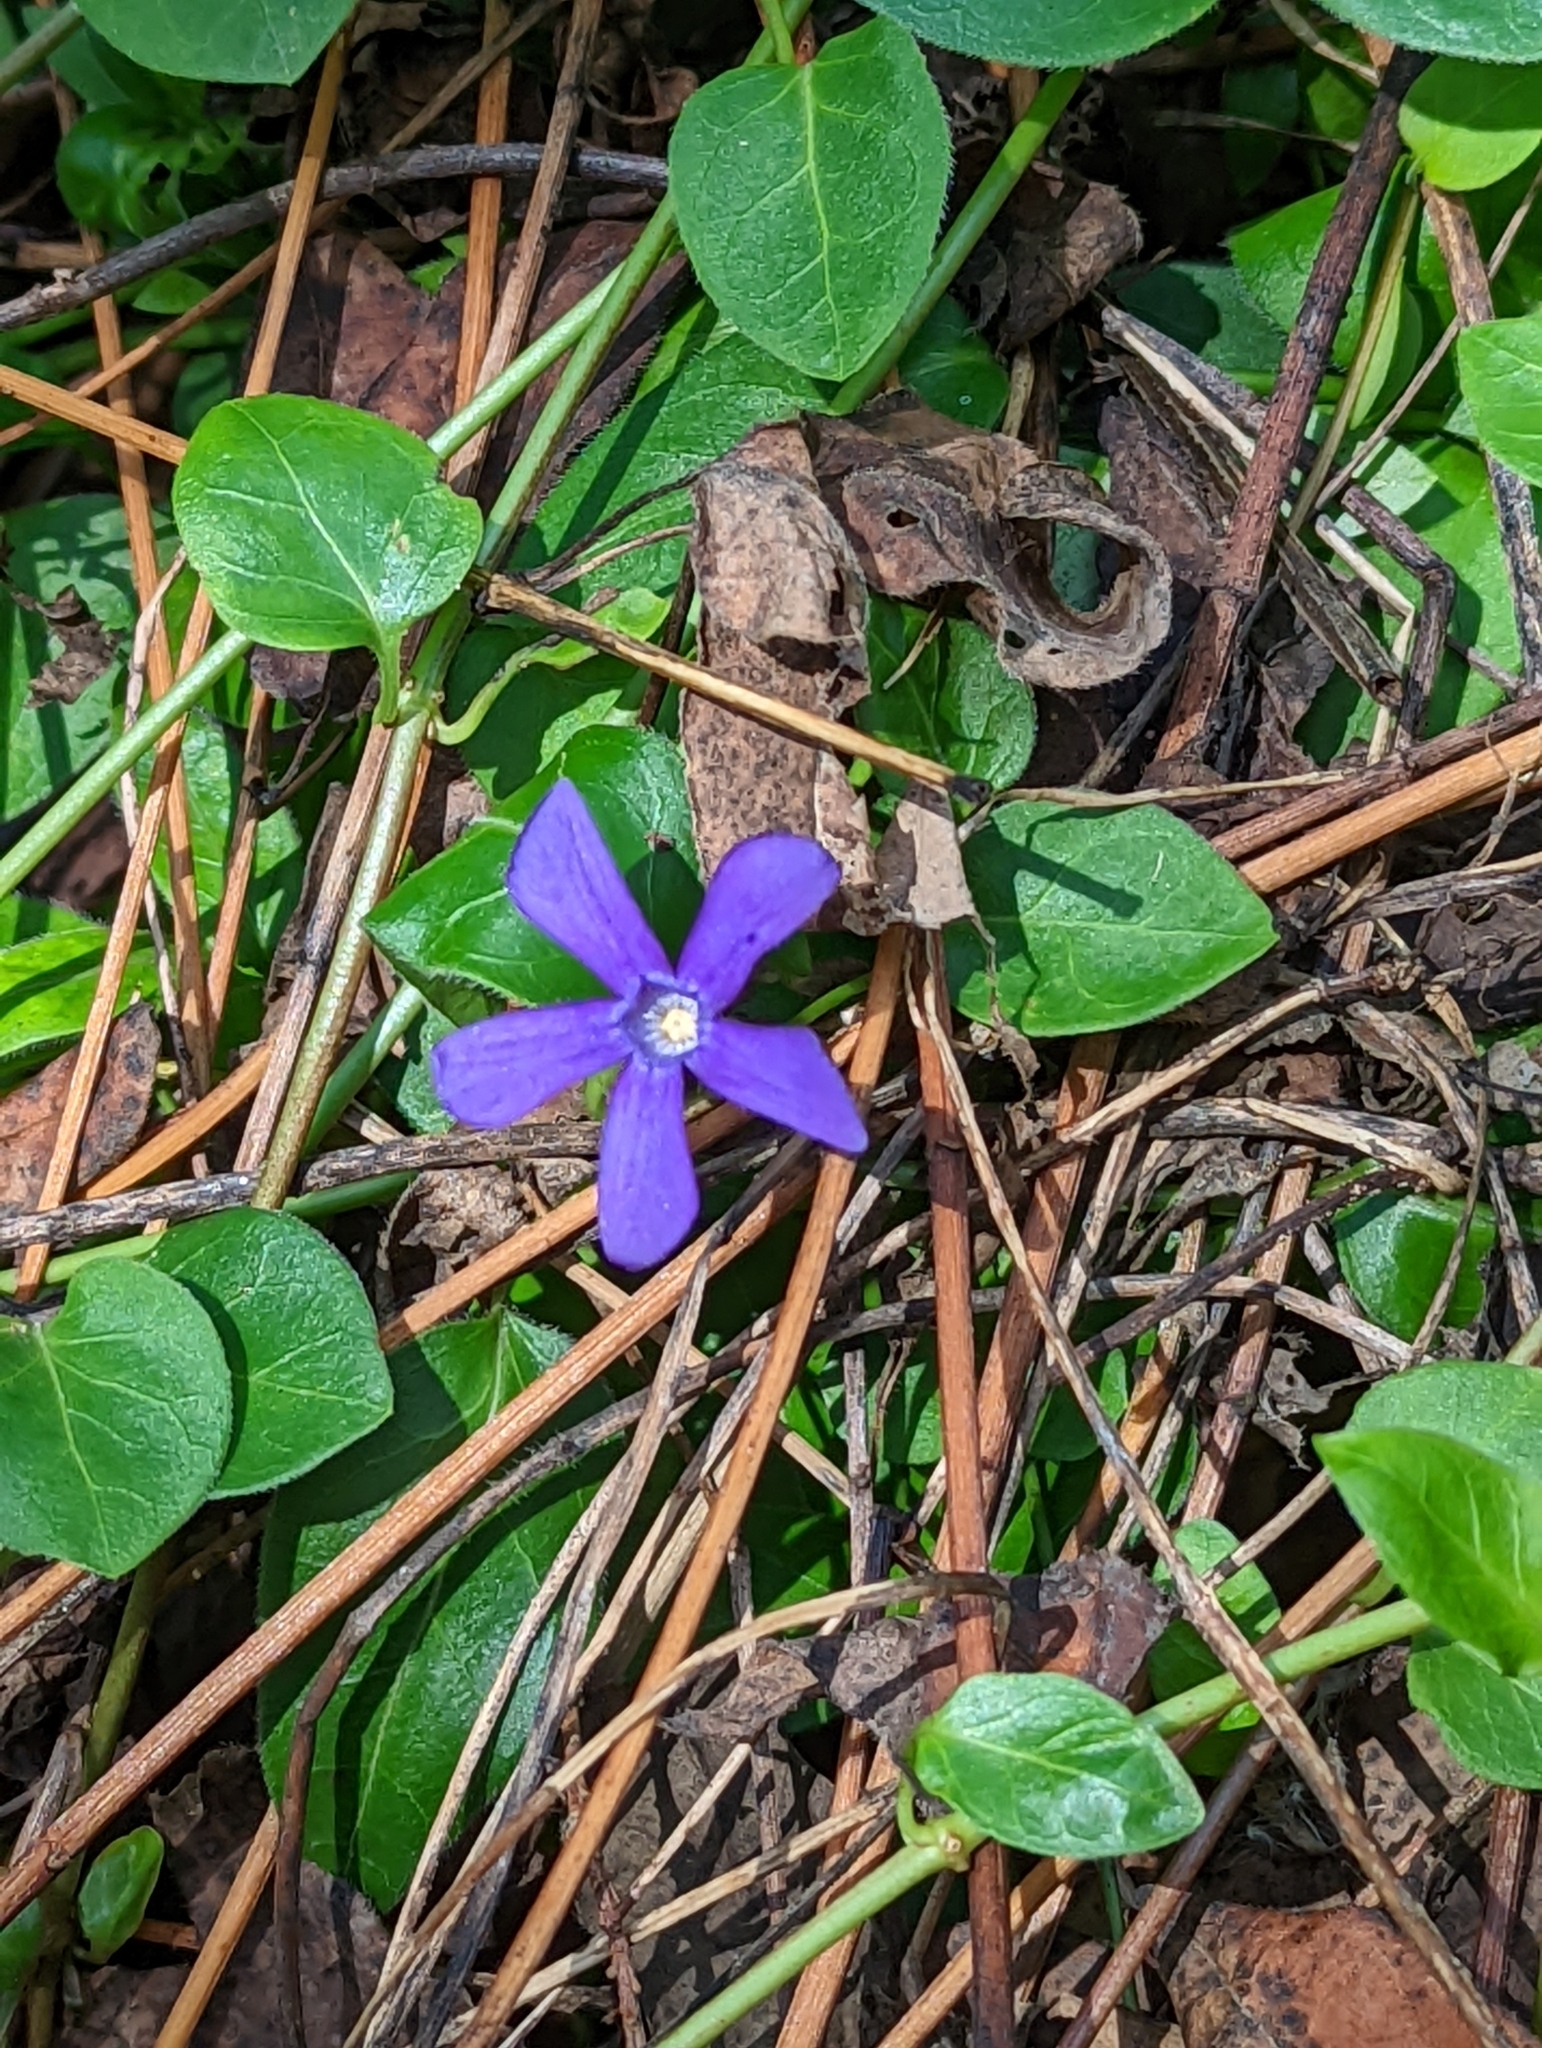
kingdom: Plantae
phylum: Tracheophyta
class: Magnoliopsida
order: Gentianales
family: Apocynaceae
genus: Vinca
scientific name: Vinca major
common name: Greater periwinkle
